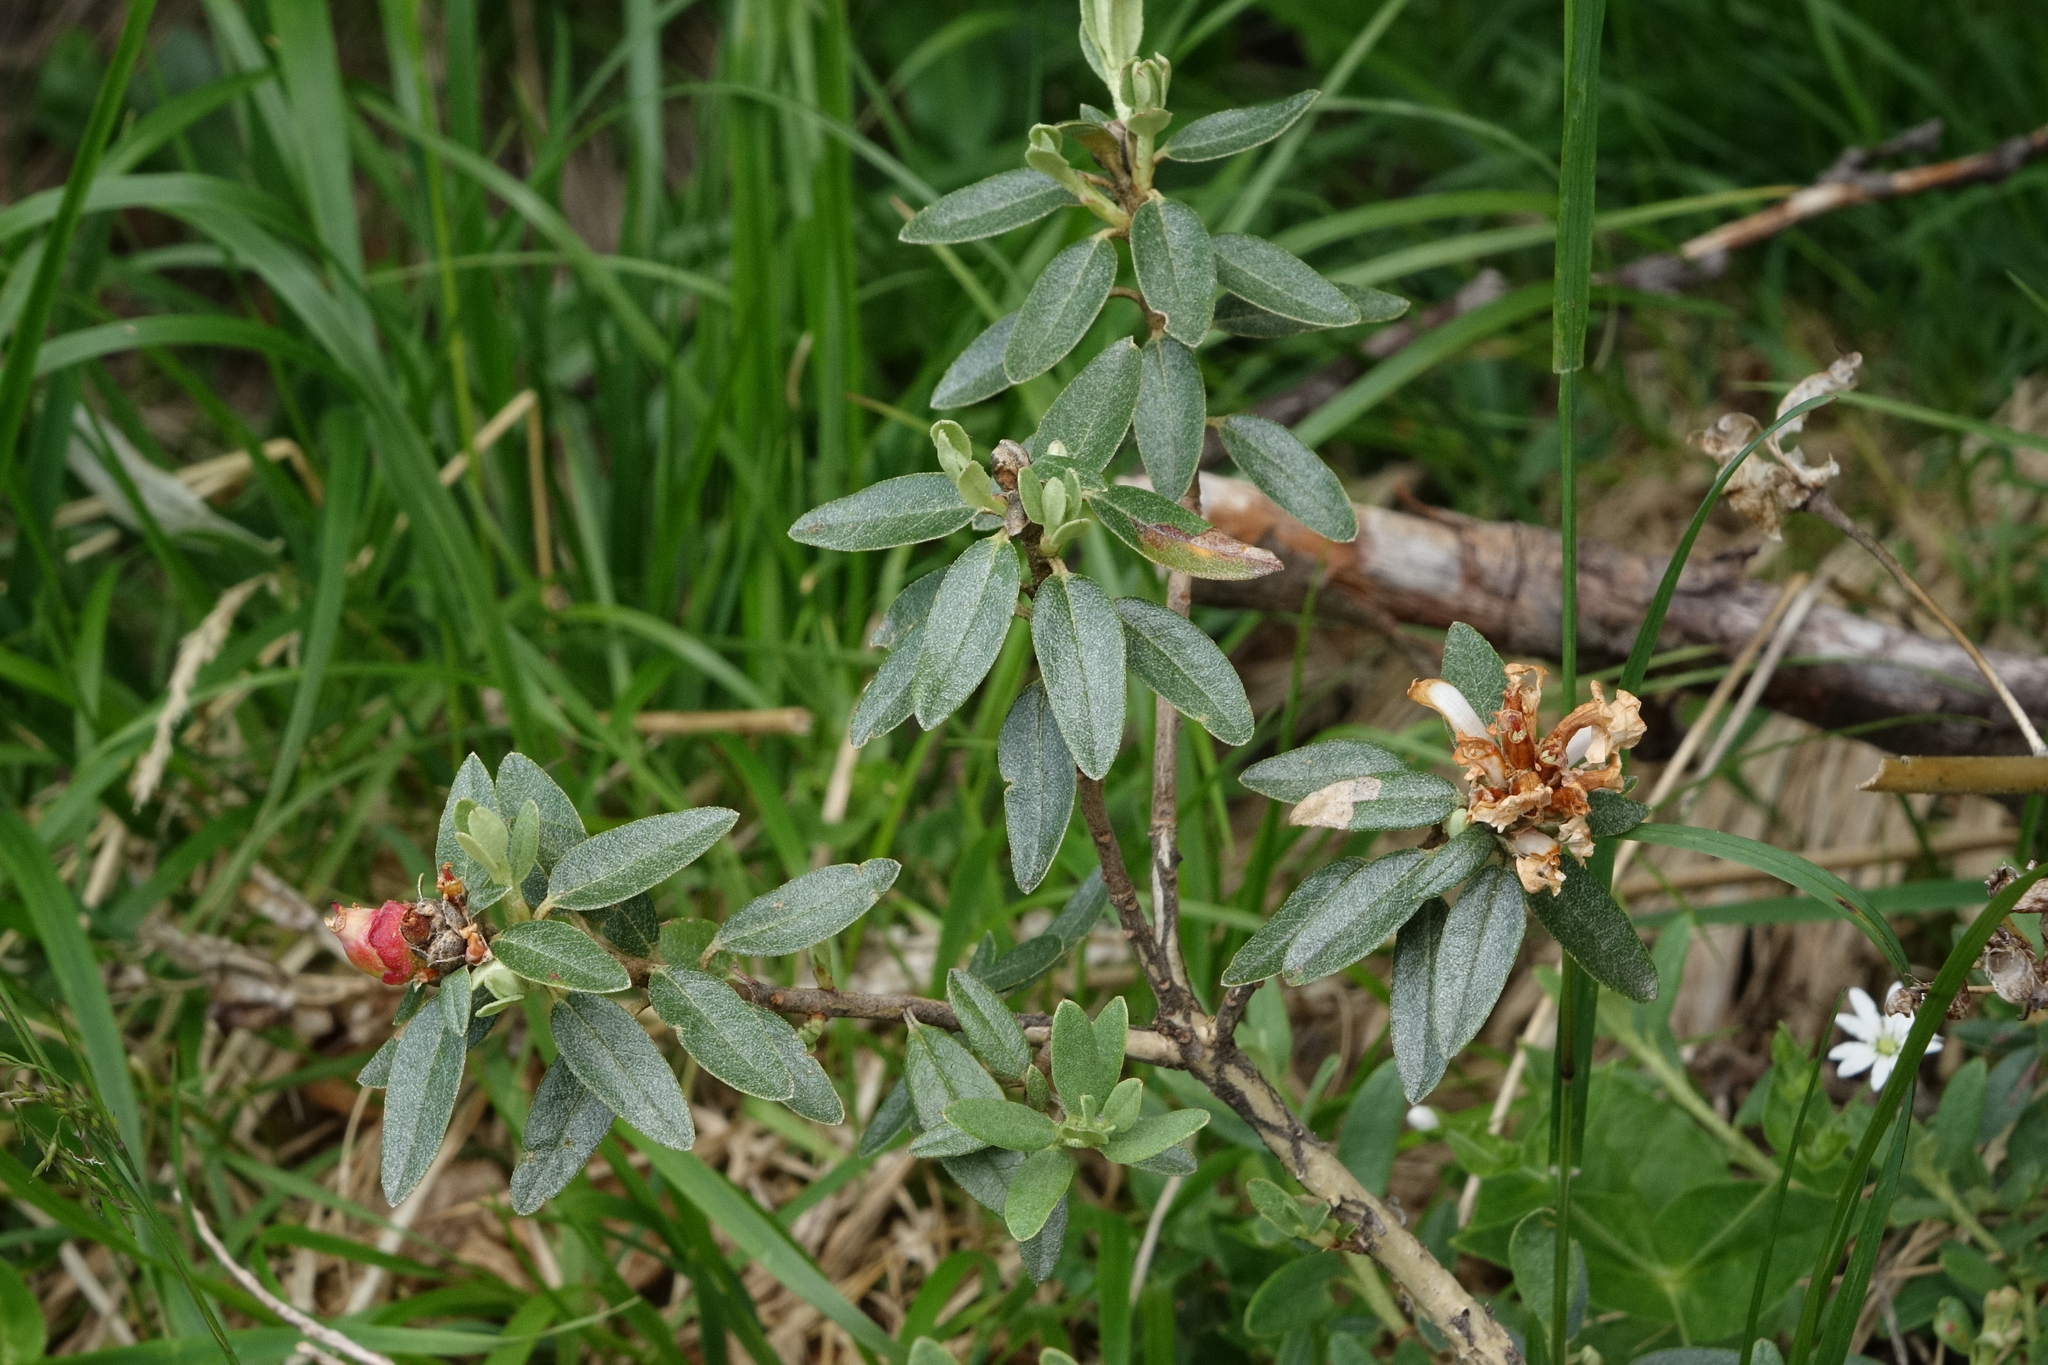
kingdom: Plantae
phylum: Tracheophyta
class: Magnoliopsida
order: Ericales
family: Ericaceae
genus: Rhododendron
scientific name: Rhododendron adamsii
